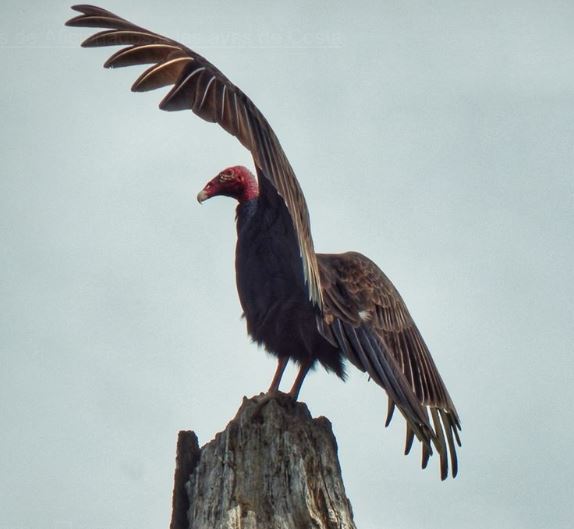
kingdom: Animalia
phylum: Chordata
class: Aves
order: Accipitriformes
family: Cathartidae
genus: Cathartes
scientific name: Cathartes aura
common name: Turkey vulture
